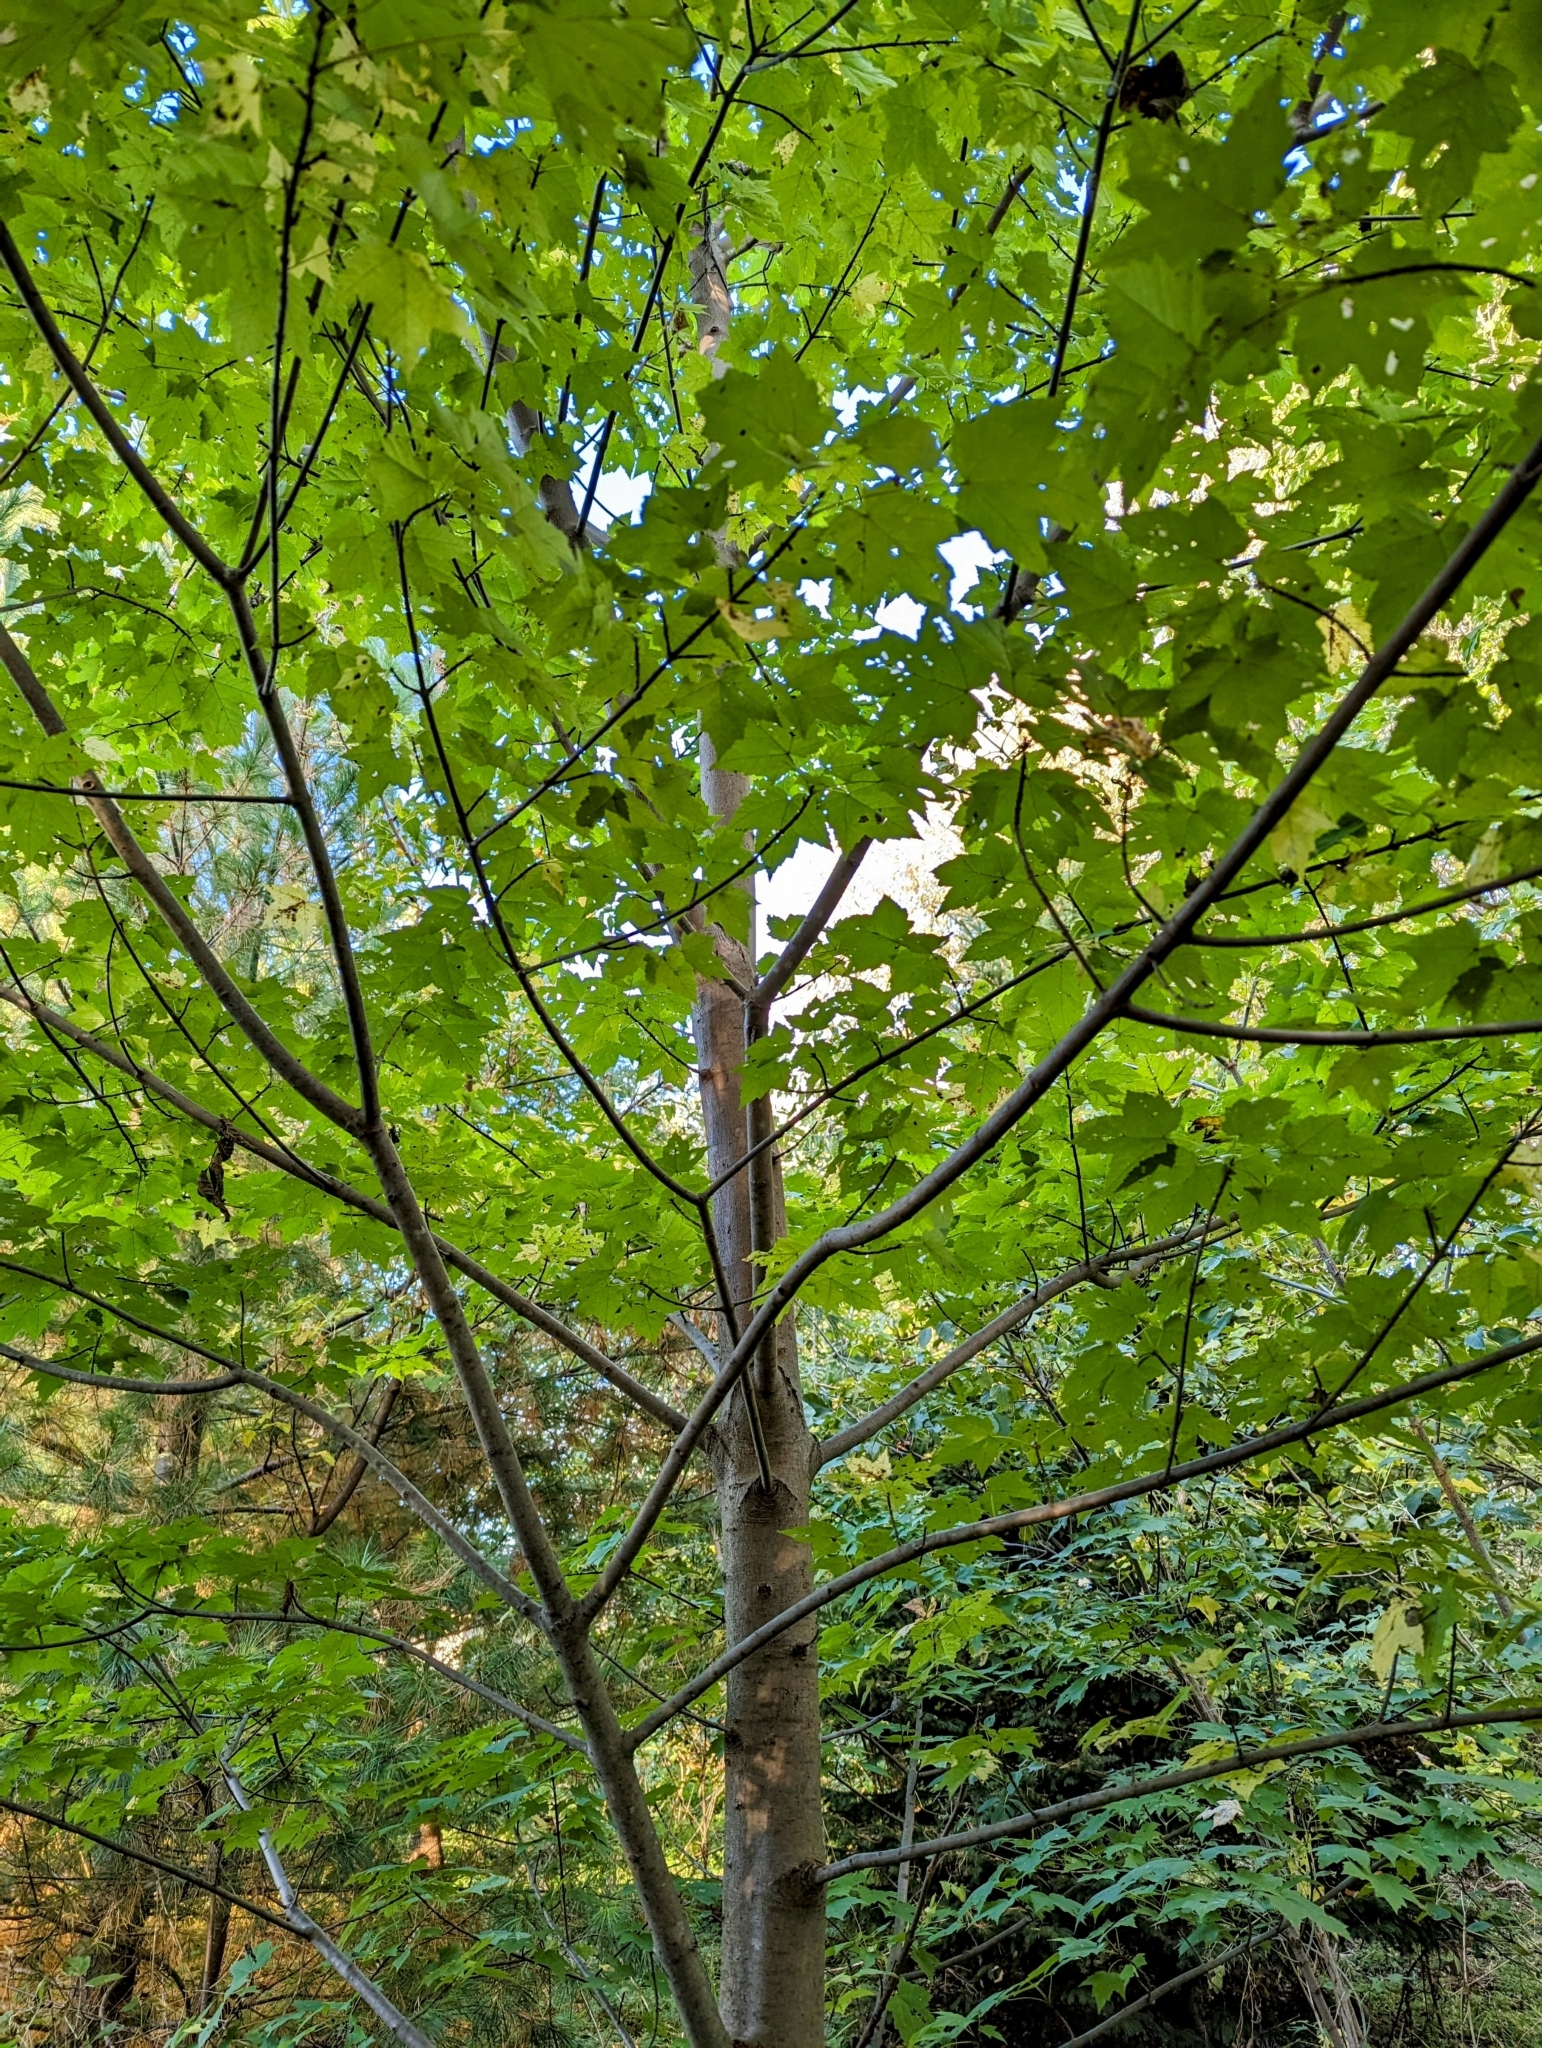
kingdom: Plantae
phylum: Tracheophyta
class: Magnoliopsida
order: Sapindales
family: Sapindaceae
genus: Acer
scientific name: Acer rubrum
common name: Red maple
